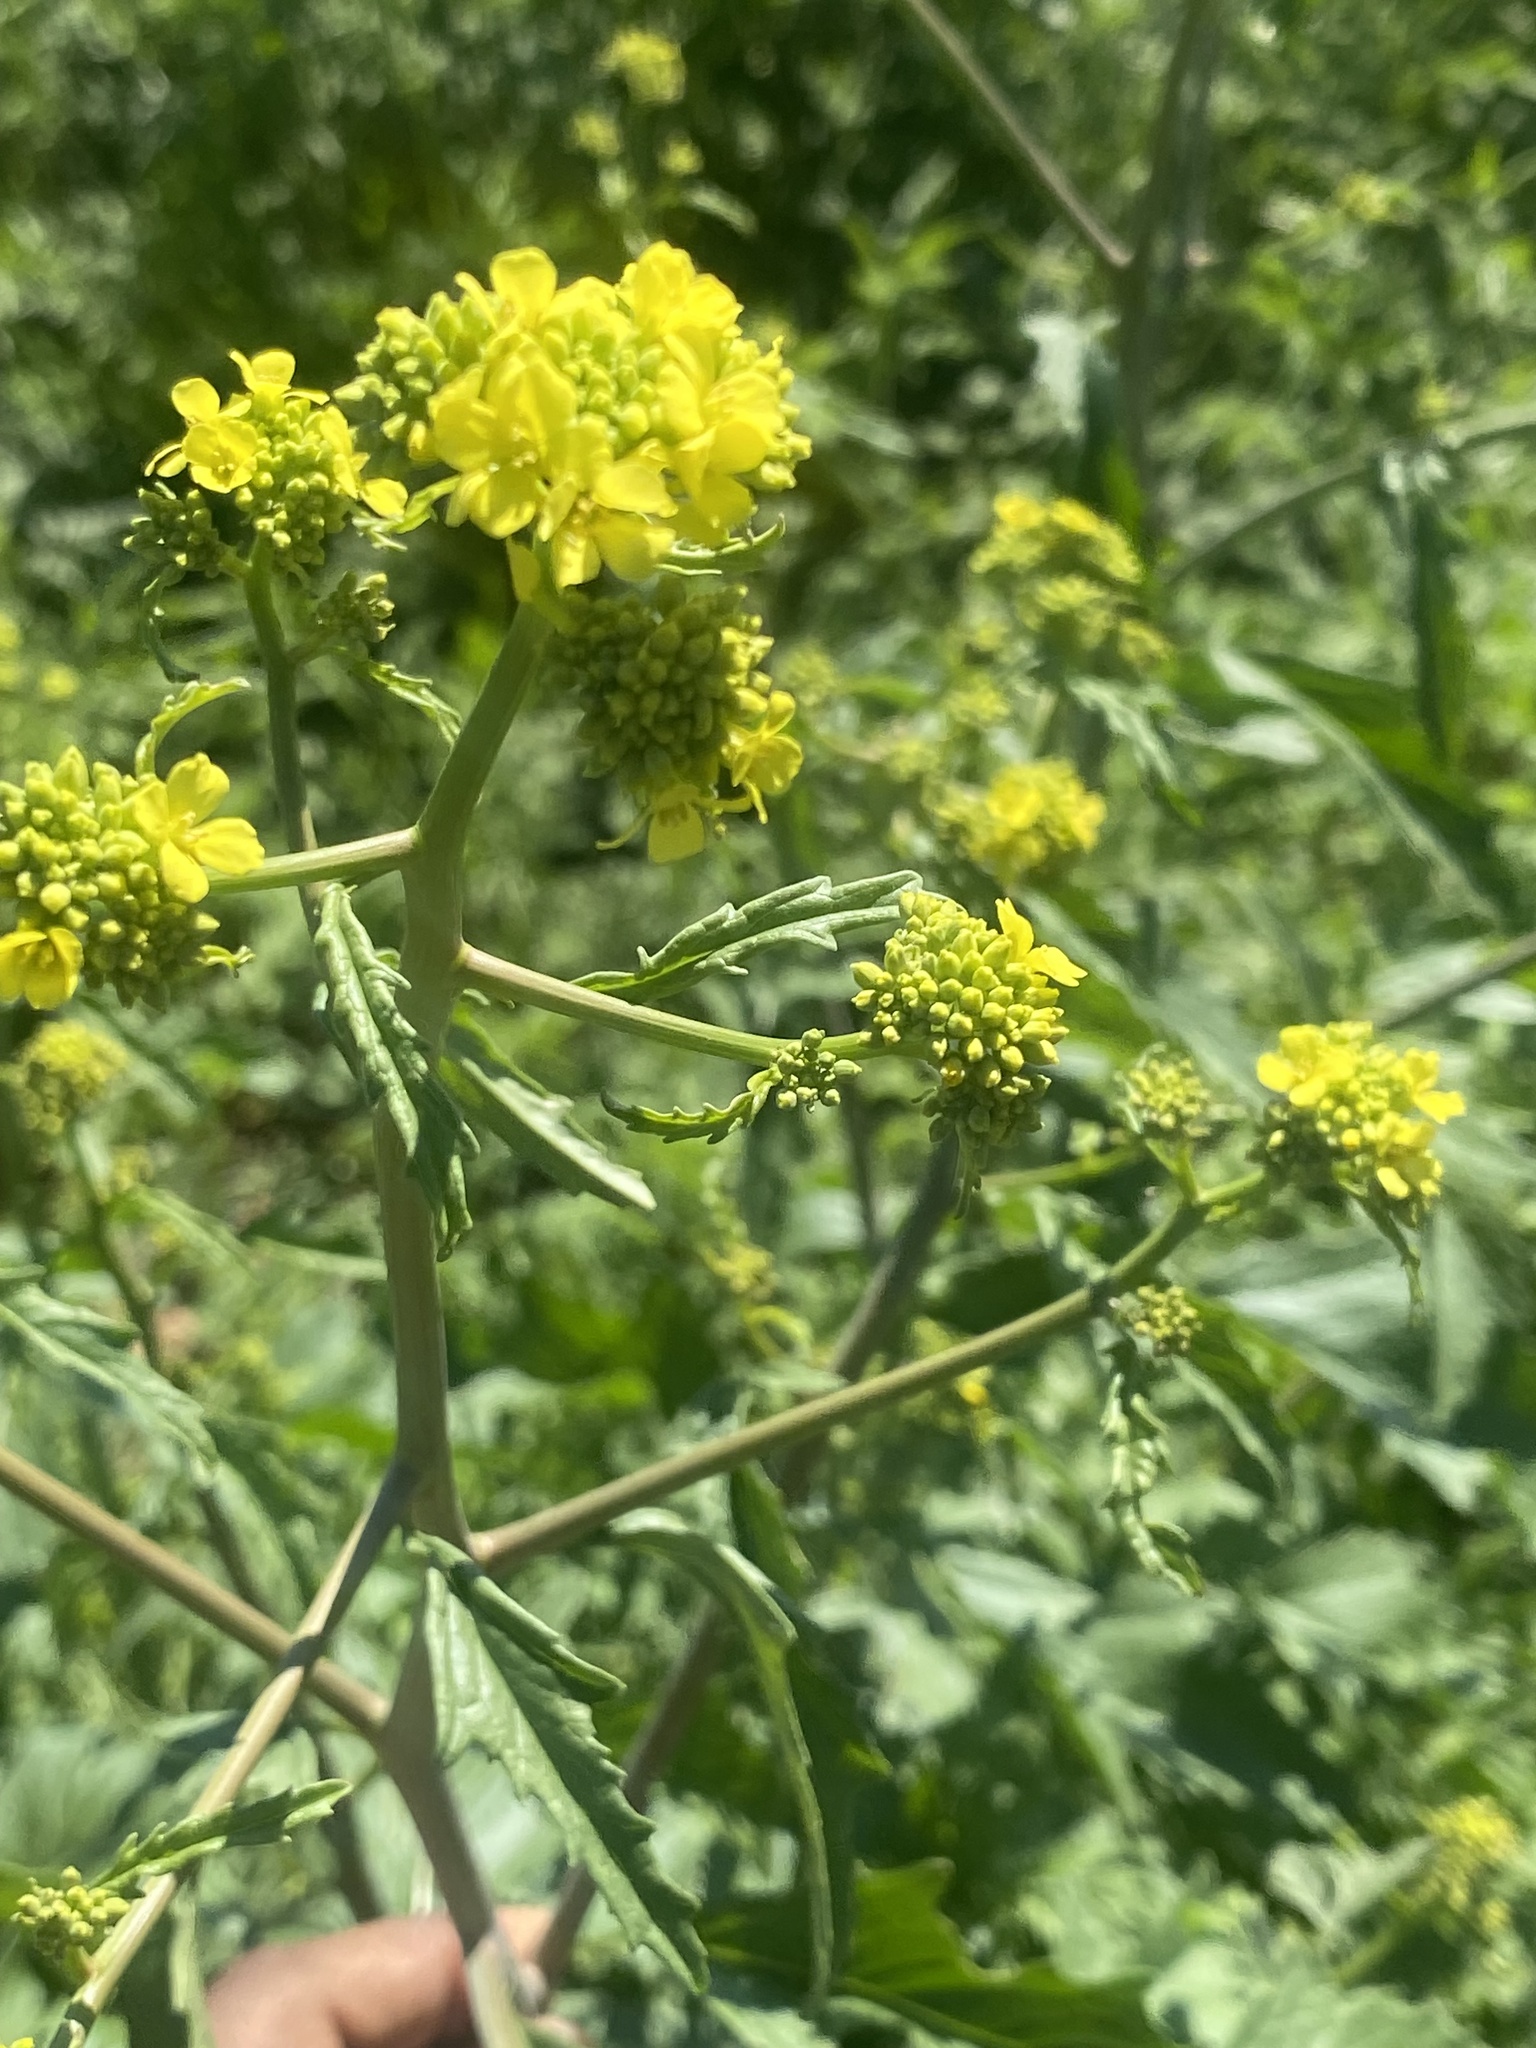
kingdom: Plantae
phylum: Tracheophyta
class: Magnoliopsida
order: Brassicales
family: Brassicaceae
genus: Rapistrum
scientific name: Rapistrum rugosum
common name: Annual bastardcabbage
